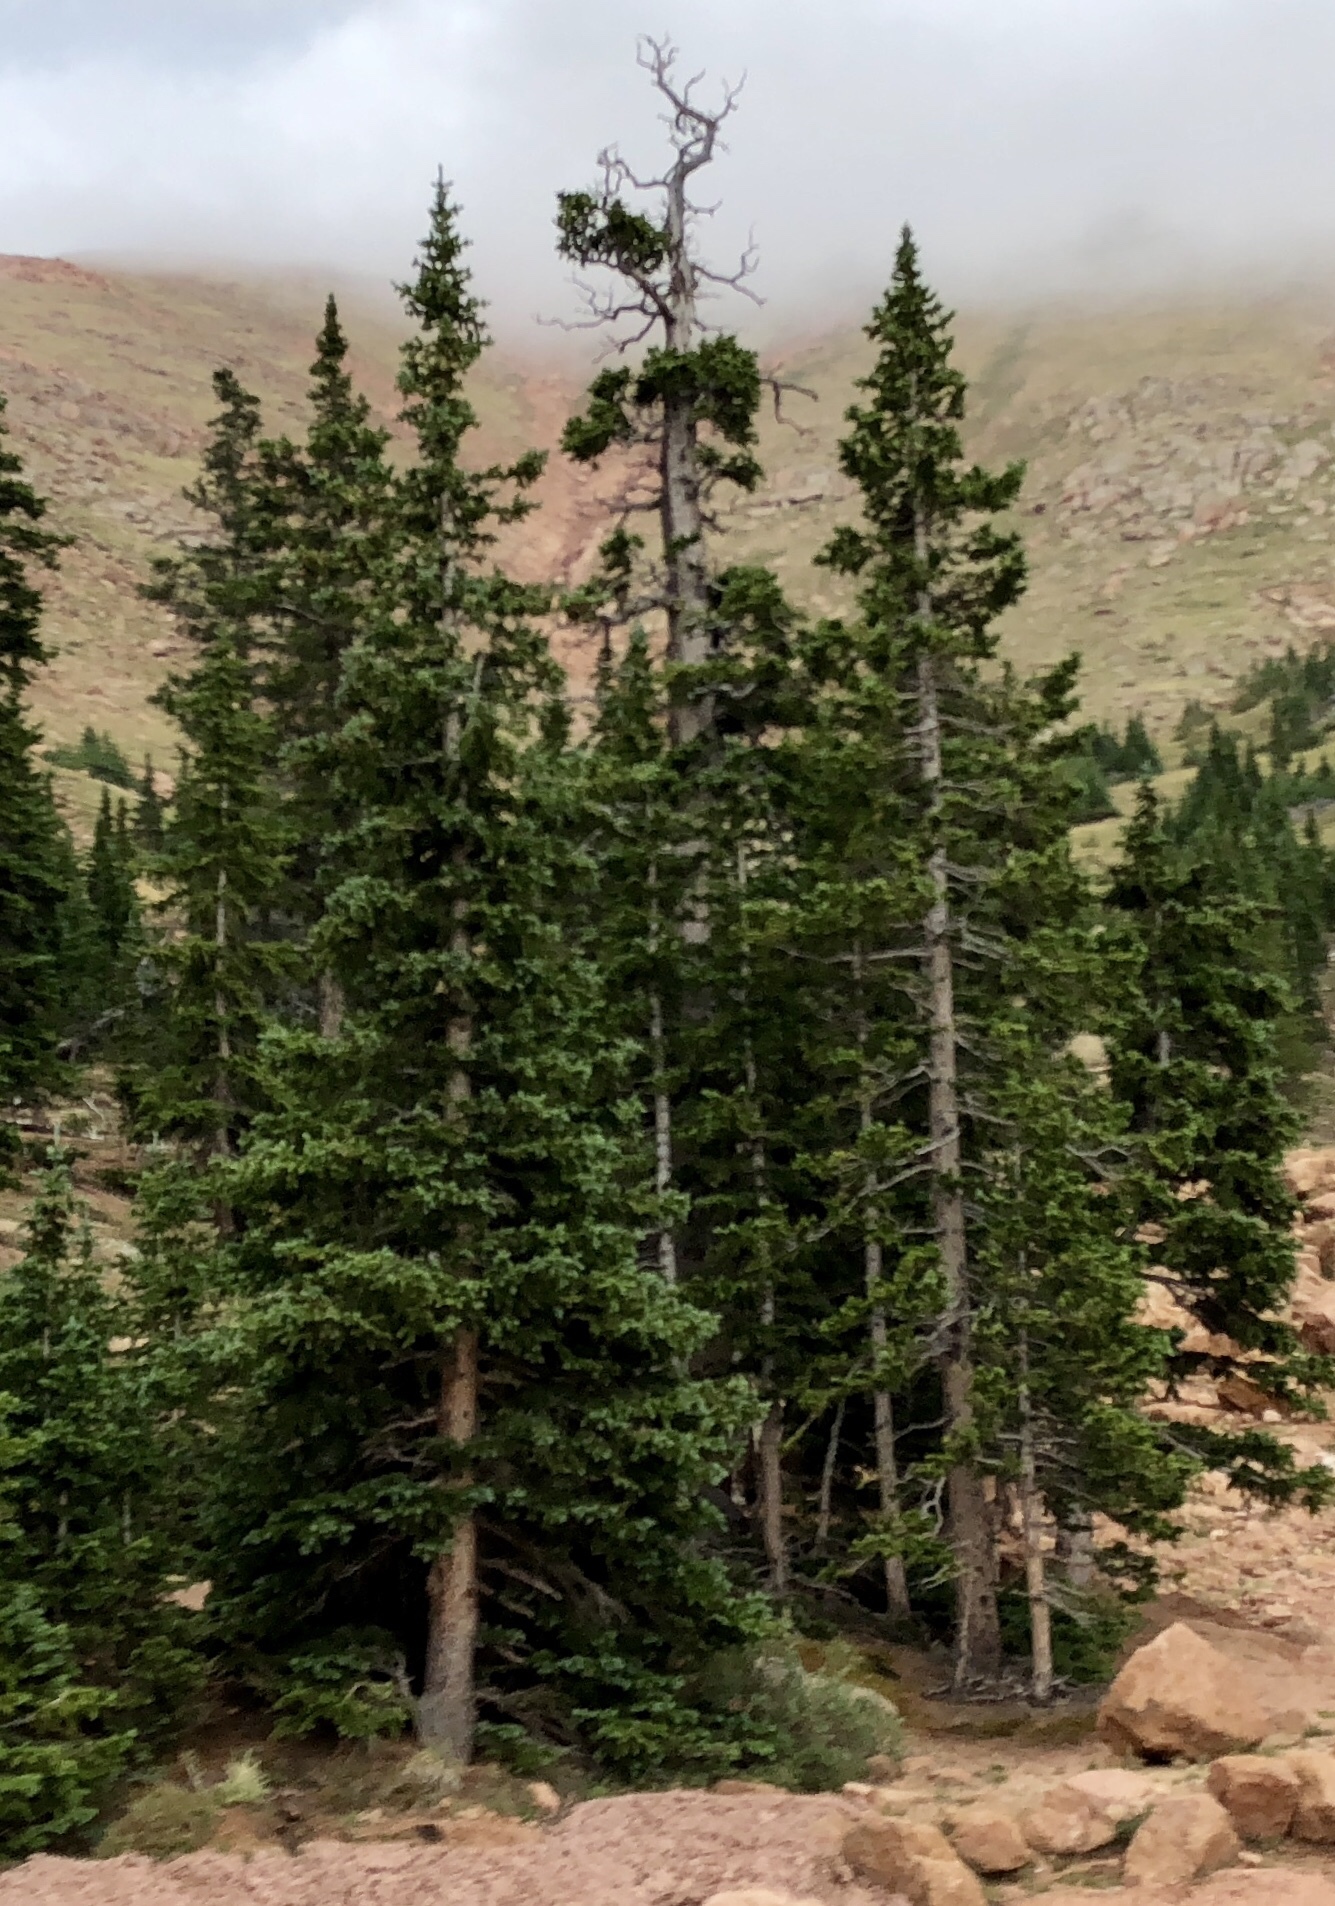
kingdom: Plantae
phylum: Tracheophyta
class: Pinopsida
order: Pinales
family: Pinaceae
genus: Picea
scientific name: Picea engelmannii
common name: Engelmann spruce
